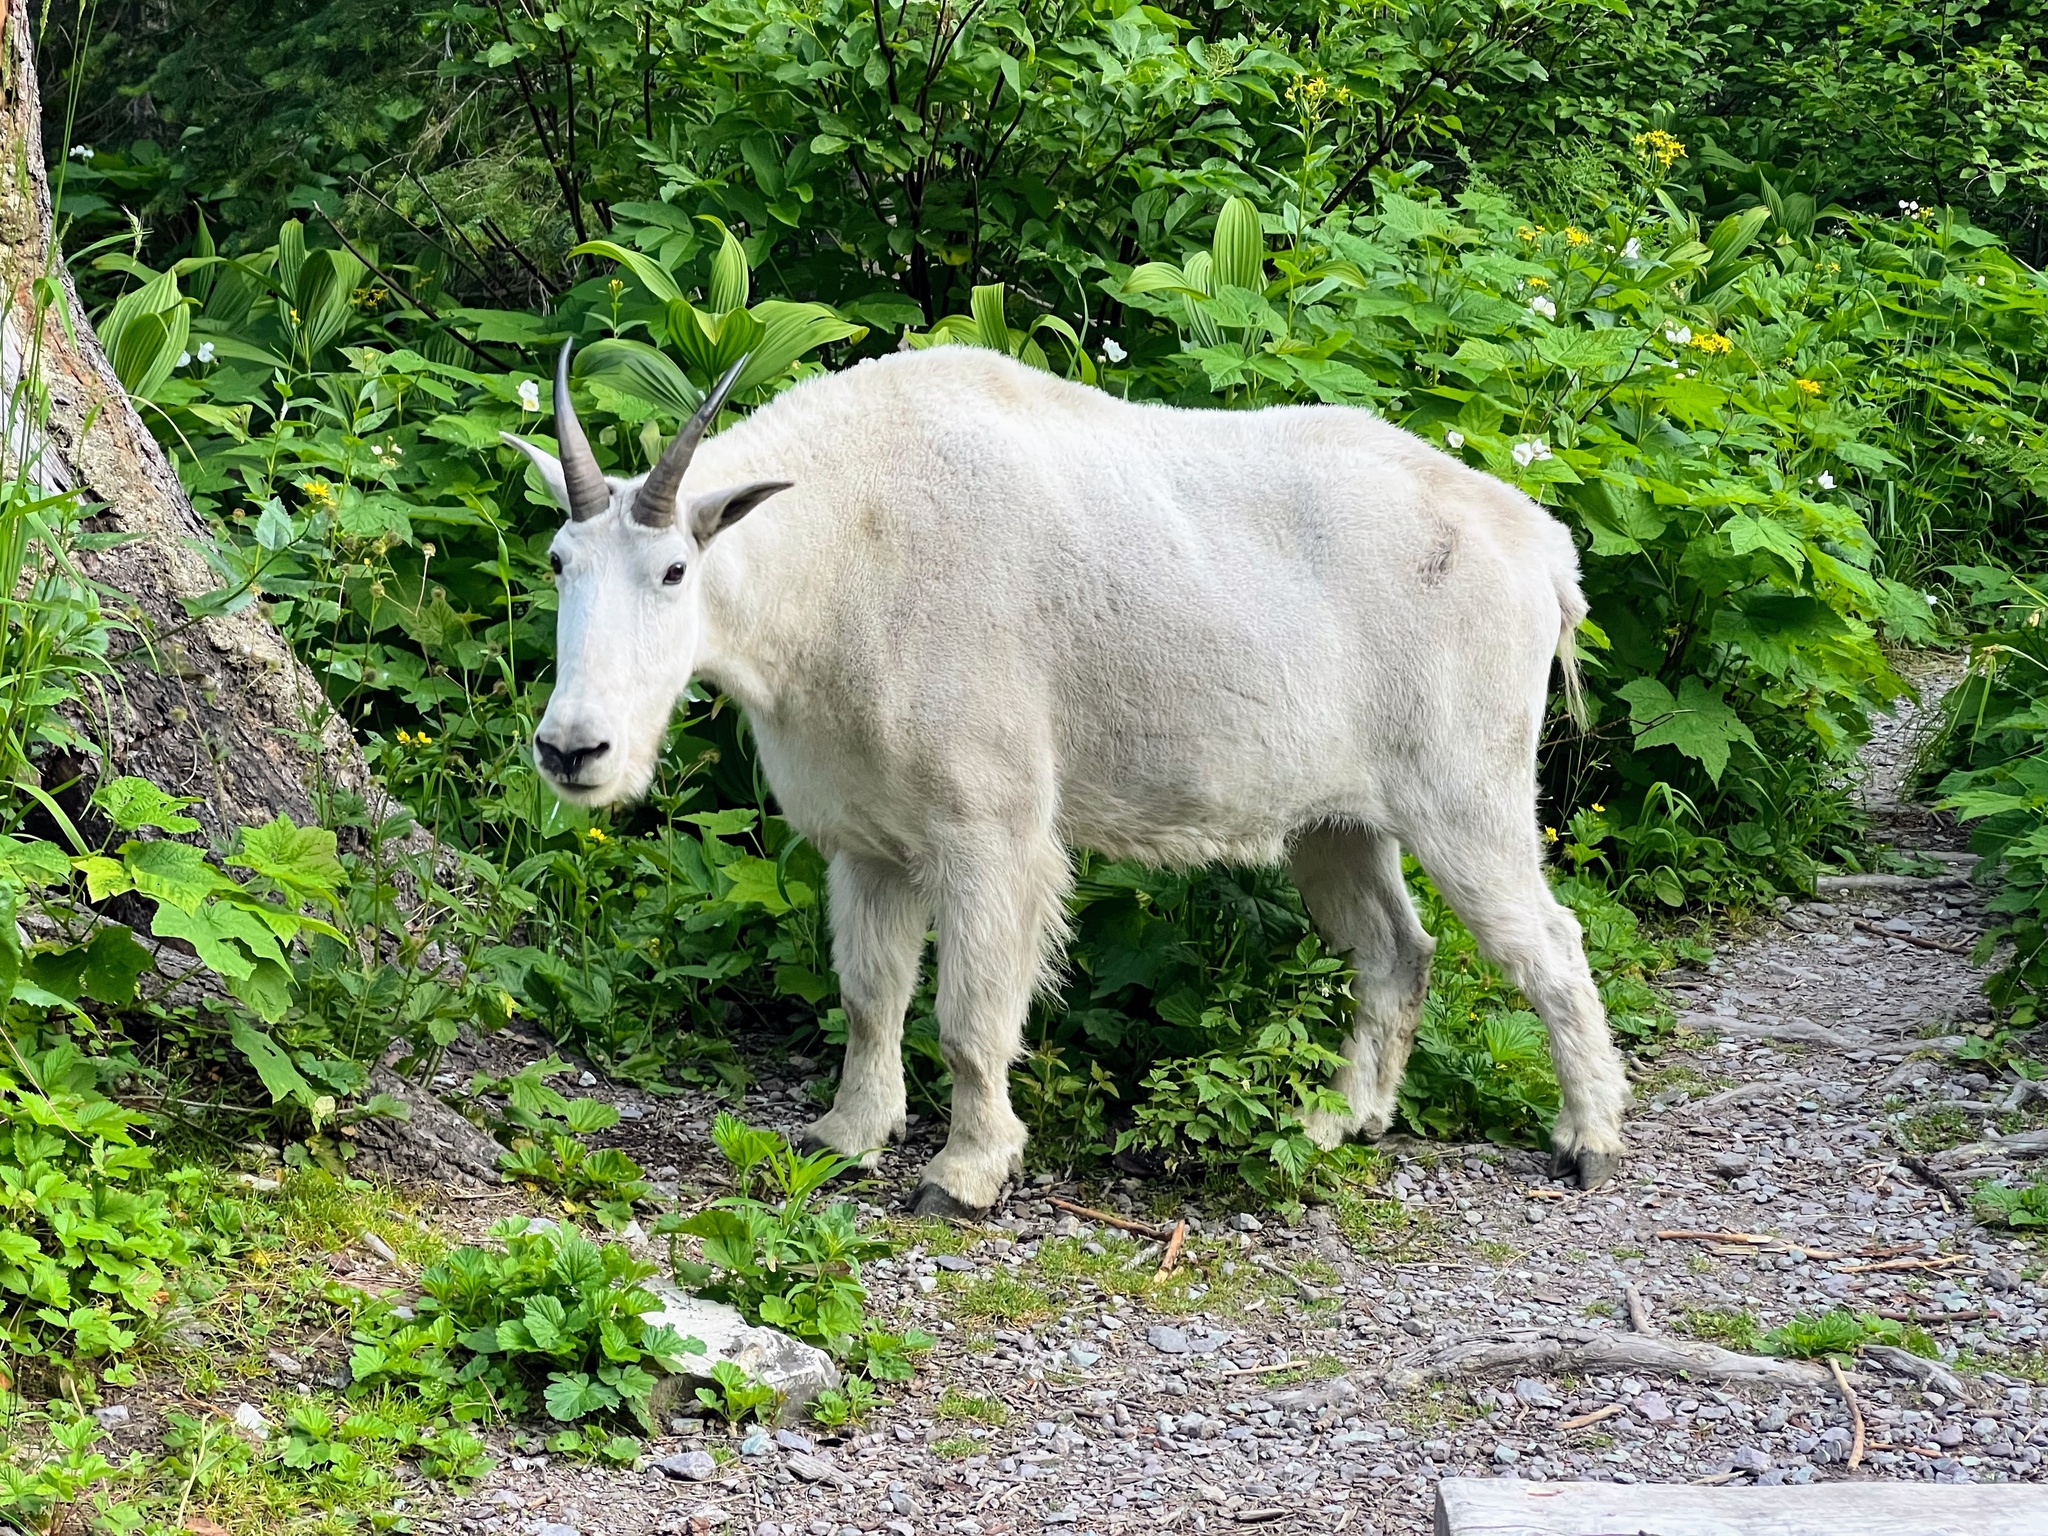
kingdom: Animalia
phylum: Chordata
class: Mammalia
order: Artiodactyla
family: Bovidae
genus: Oreamnos
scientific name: Oreamnos americanus
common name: Mountain goat
